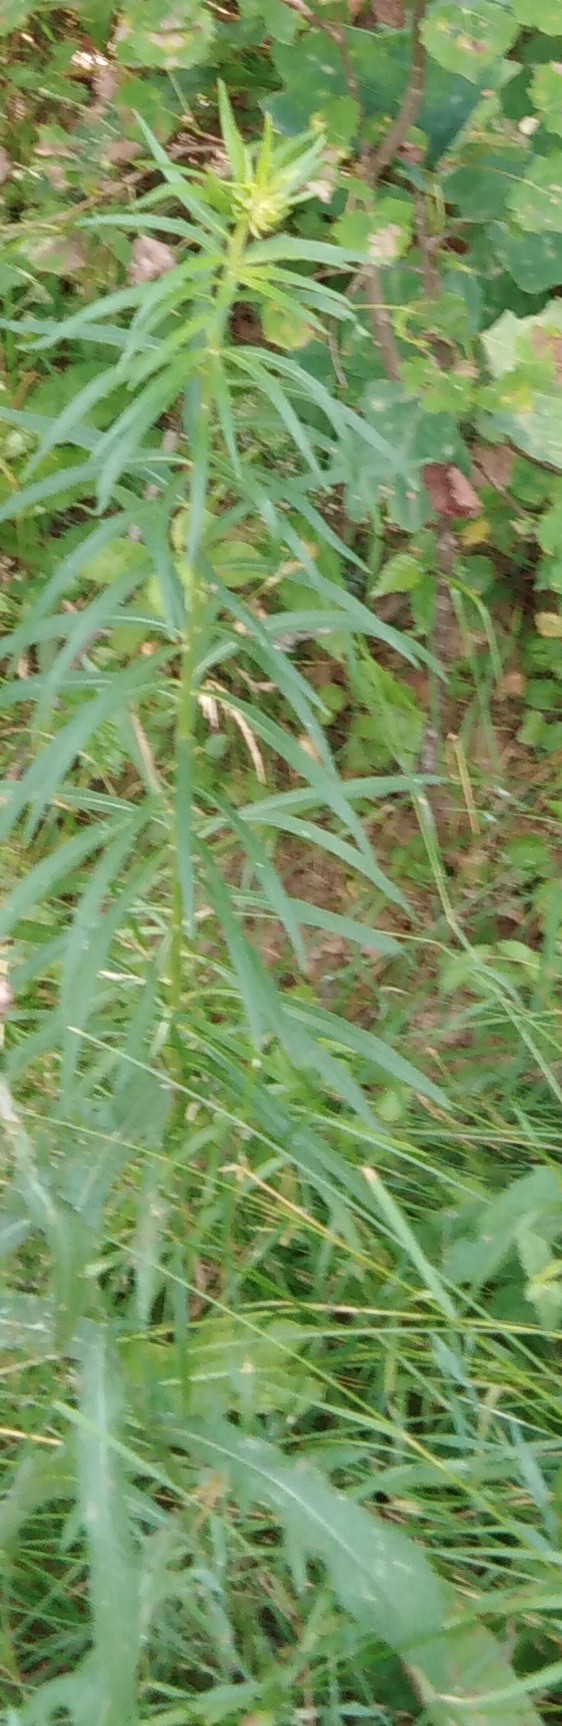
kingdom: Plantae
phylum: Tracheophyta
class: Magnoliopsida
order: Asterales
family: Asteraceae
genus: Hieracium
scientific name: Hieracium umbellatum
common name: Northern hawkweed
